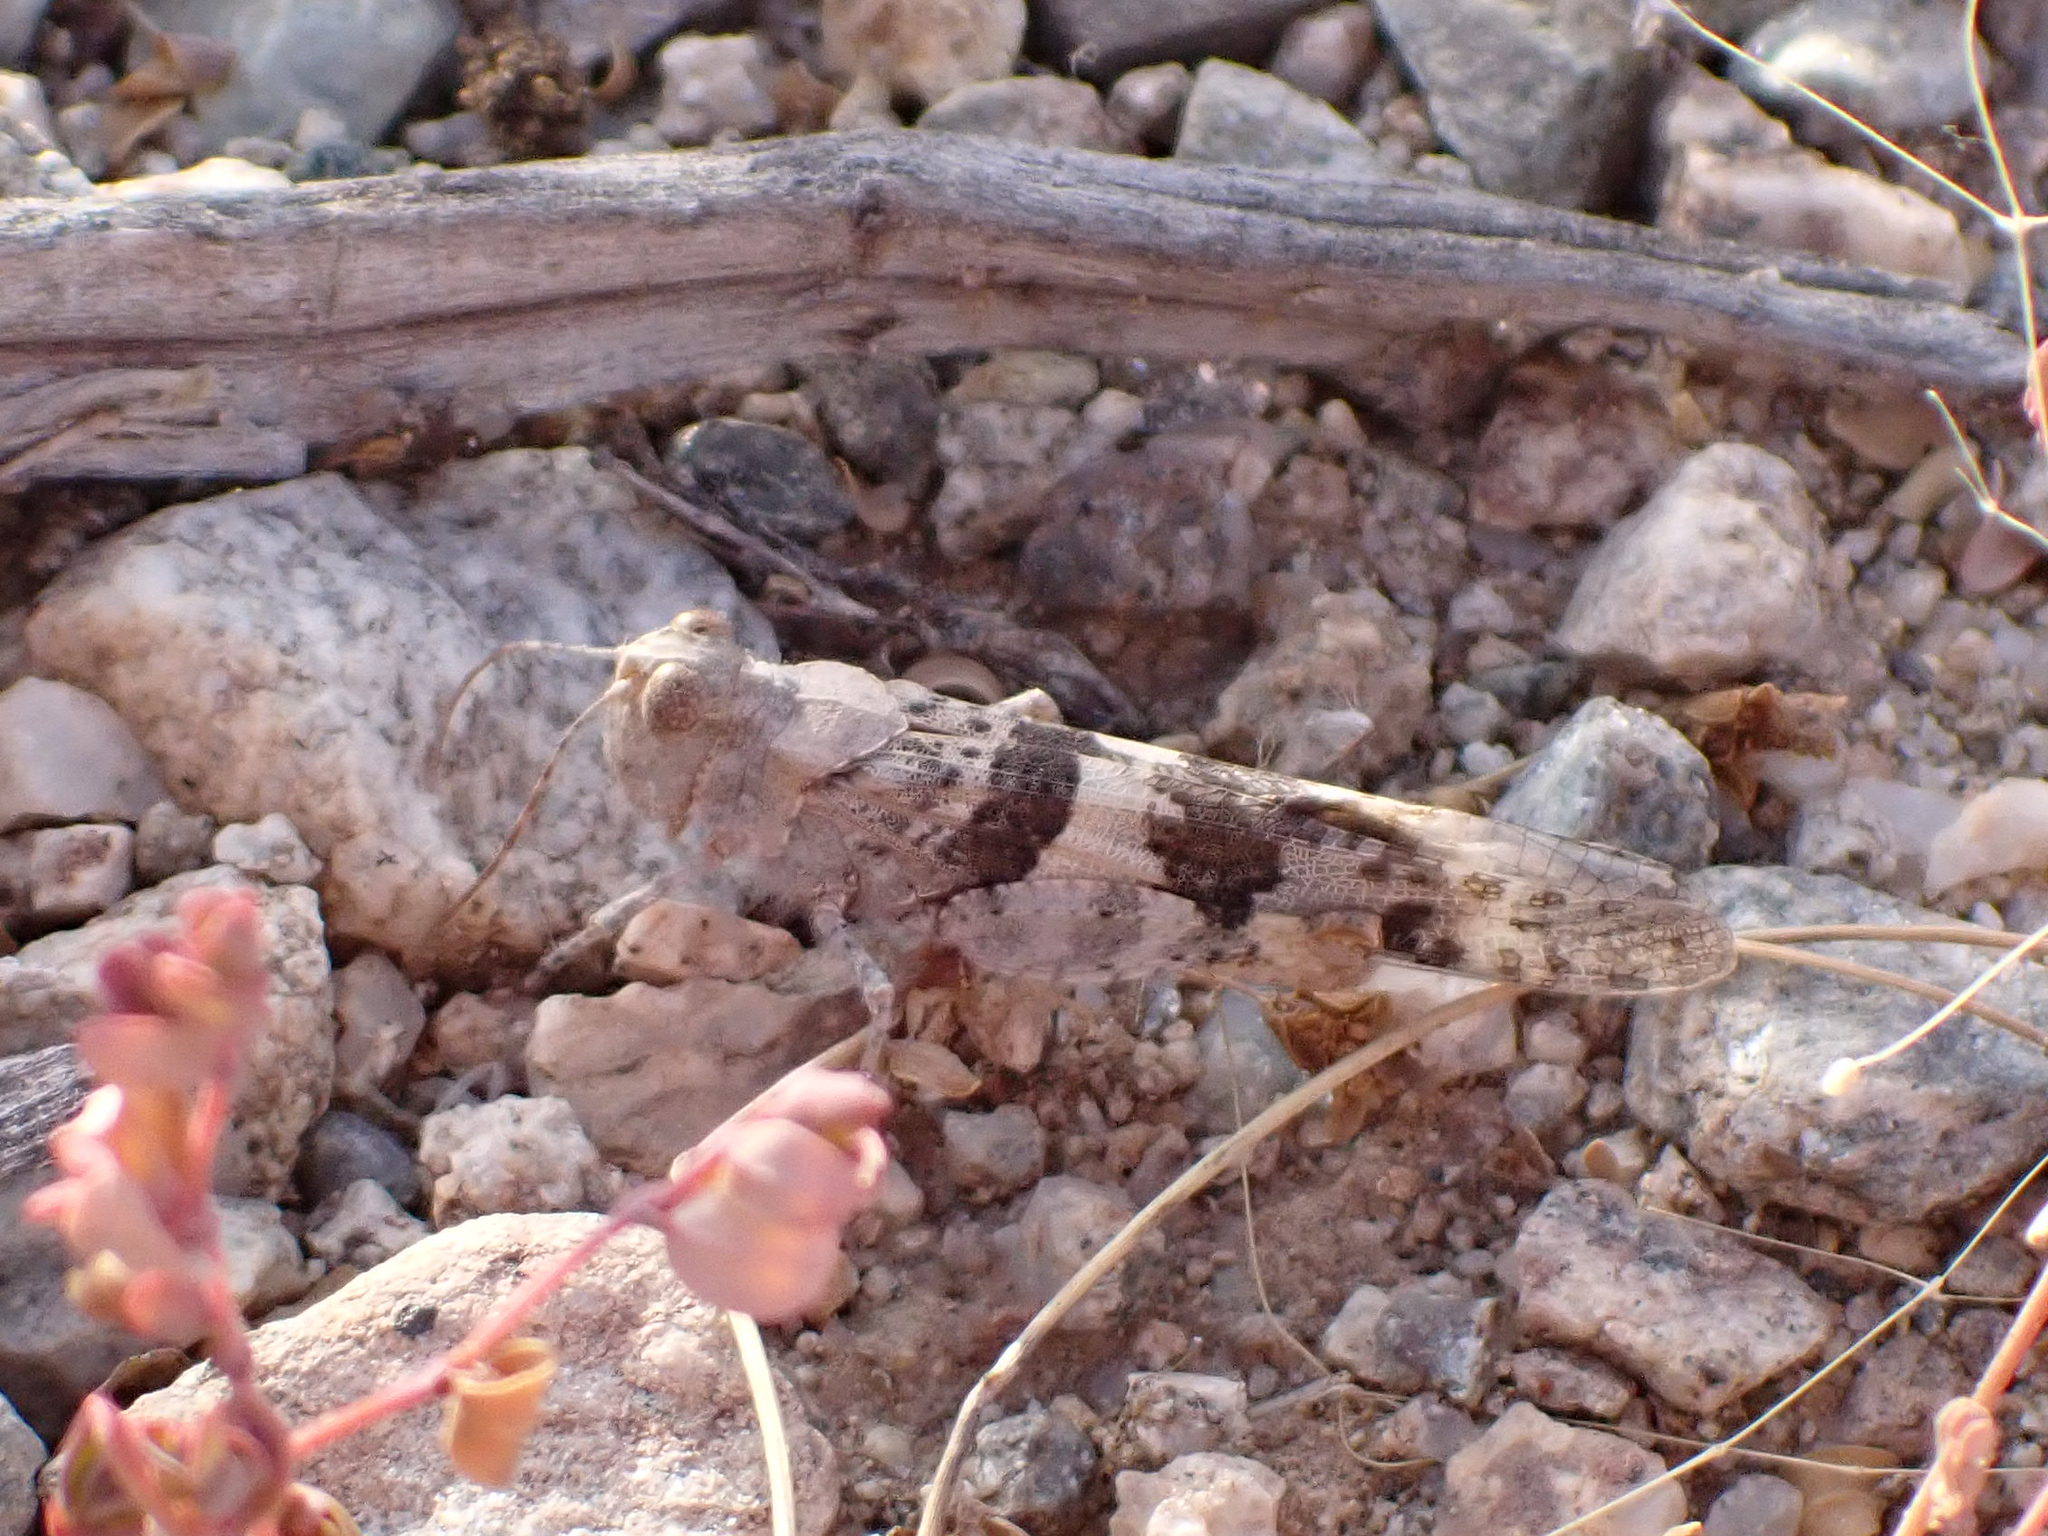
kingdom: Animalia
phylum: Arthropoda
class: Insecta
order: Orthoptera
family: Acrididae
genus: Trimerotropis
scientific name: Trimerotropis pallidipennis
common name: Pallid-winged grasshopper
